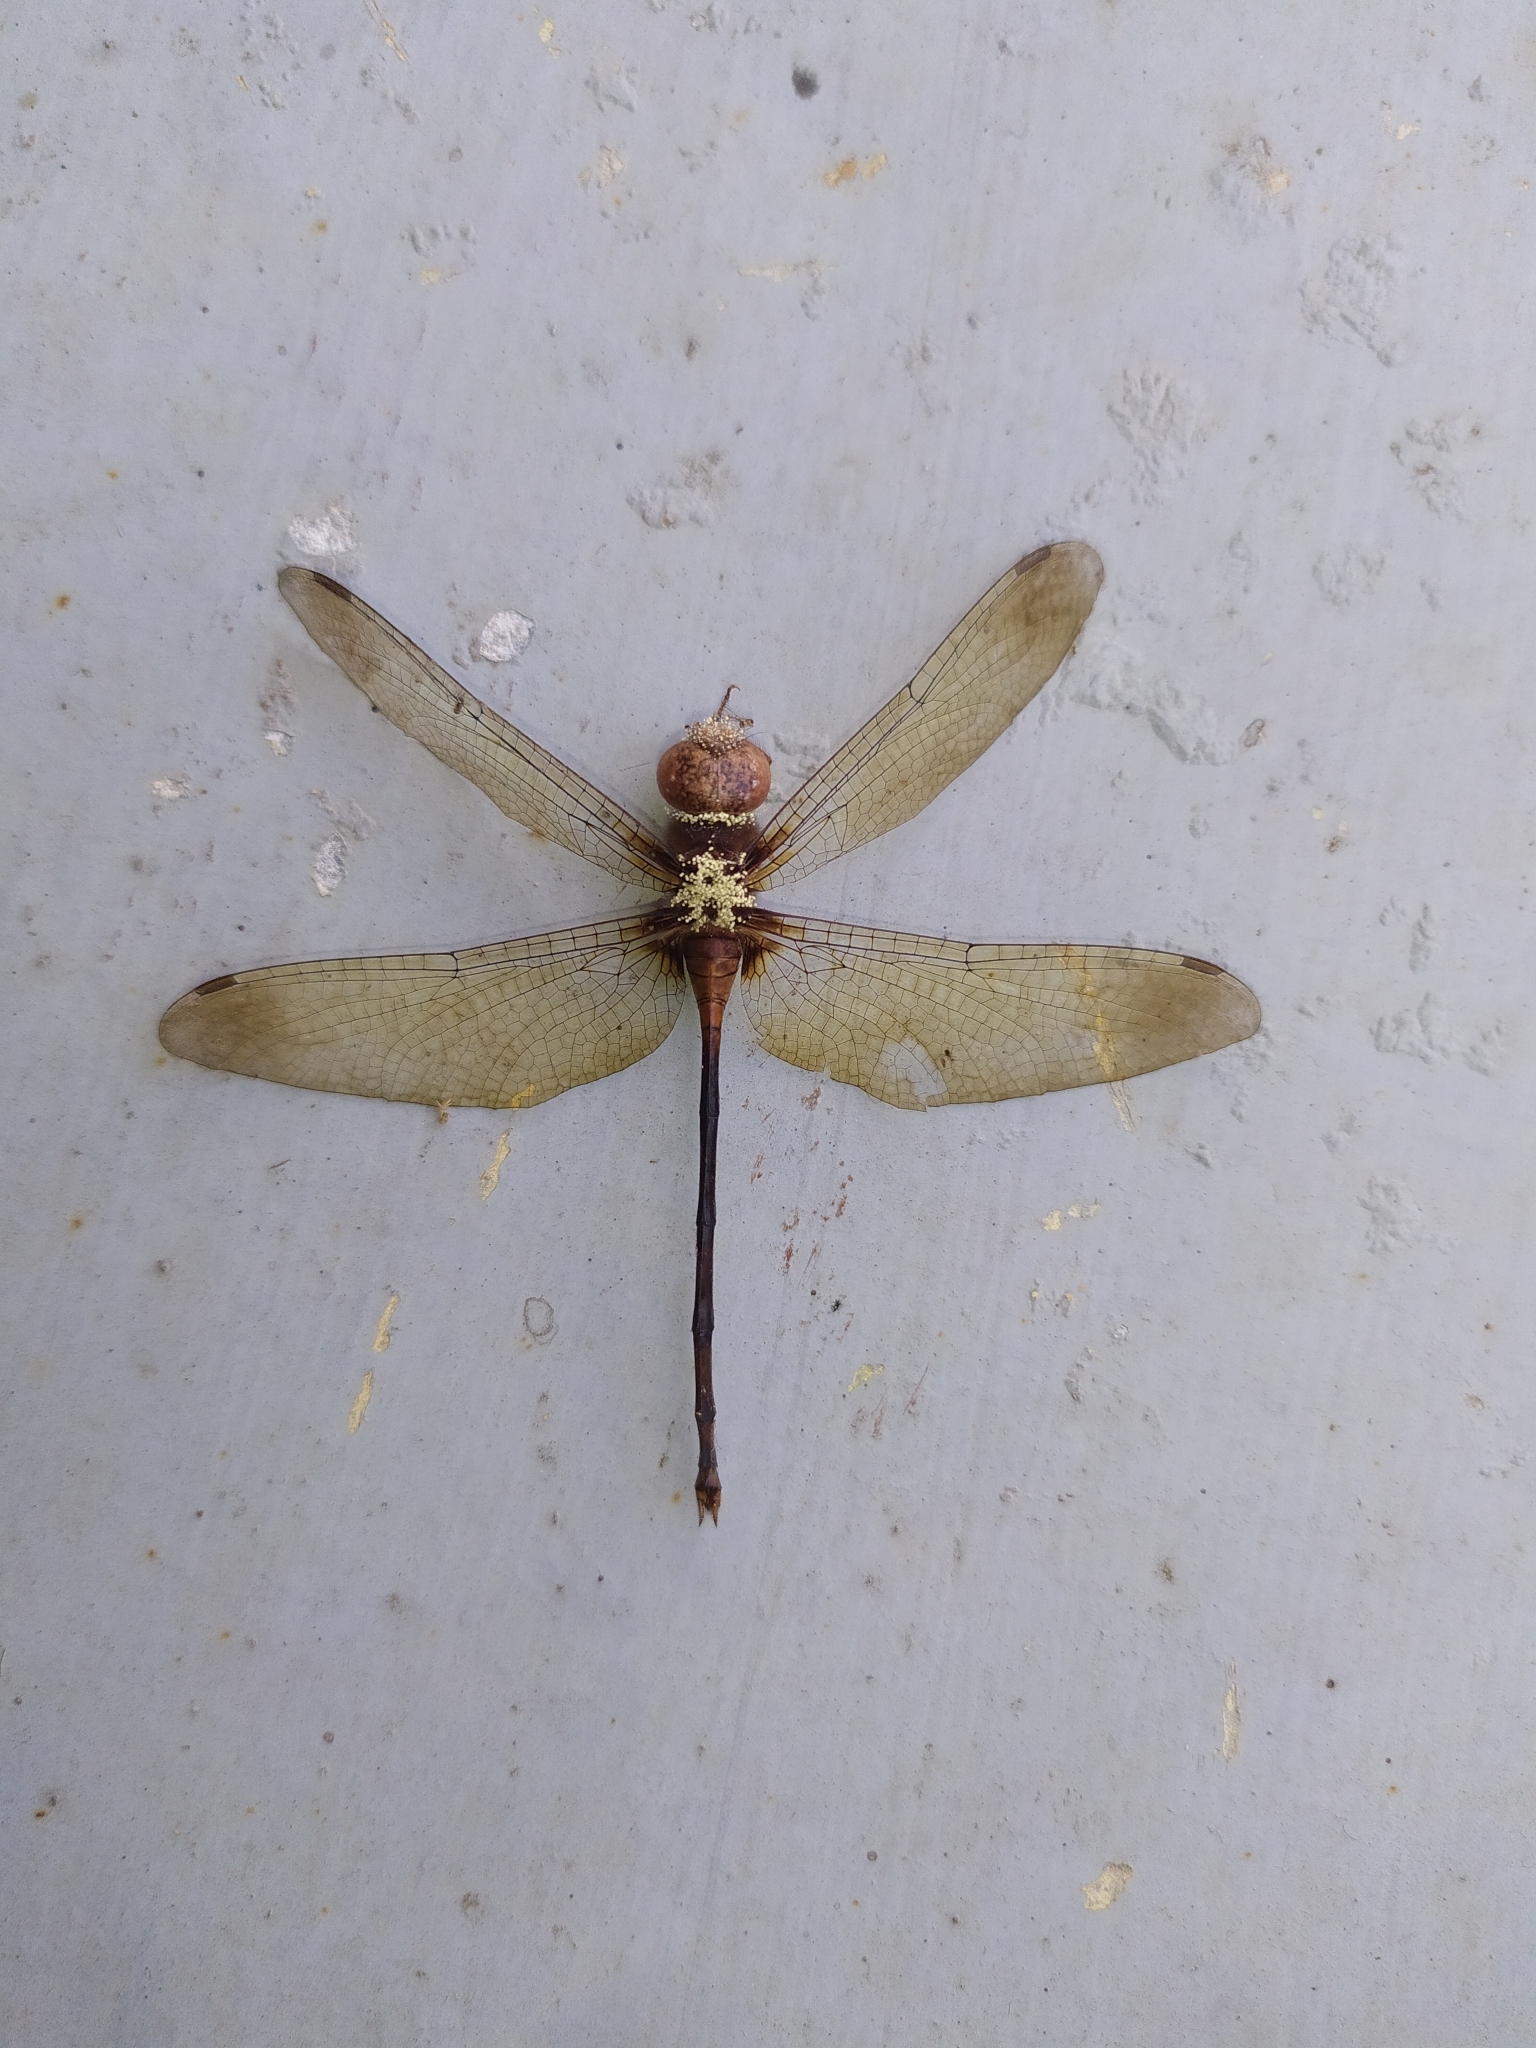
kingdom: Animalia
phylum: Arthropoda
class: Insecta
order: Odonata
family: Libellulidae
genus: Zyxomma
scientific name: Zyxomma petiolatum
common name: Dingy dusk-darter
